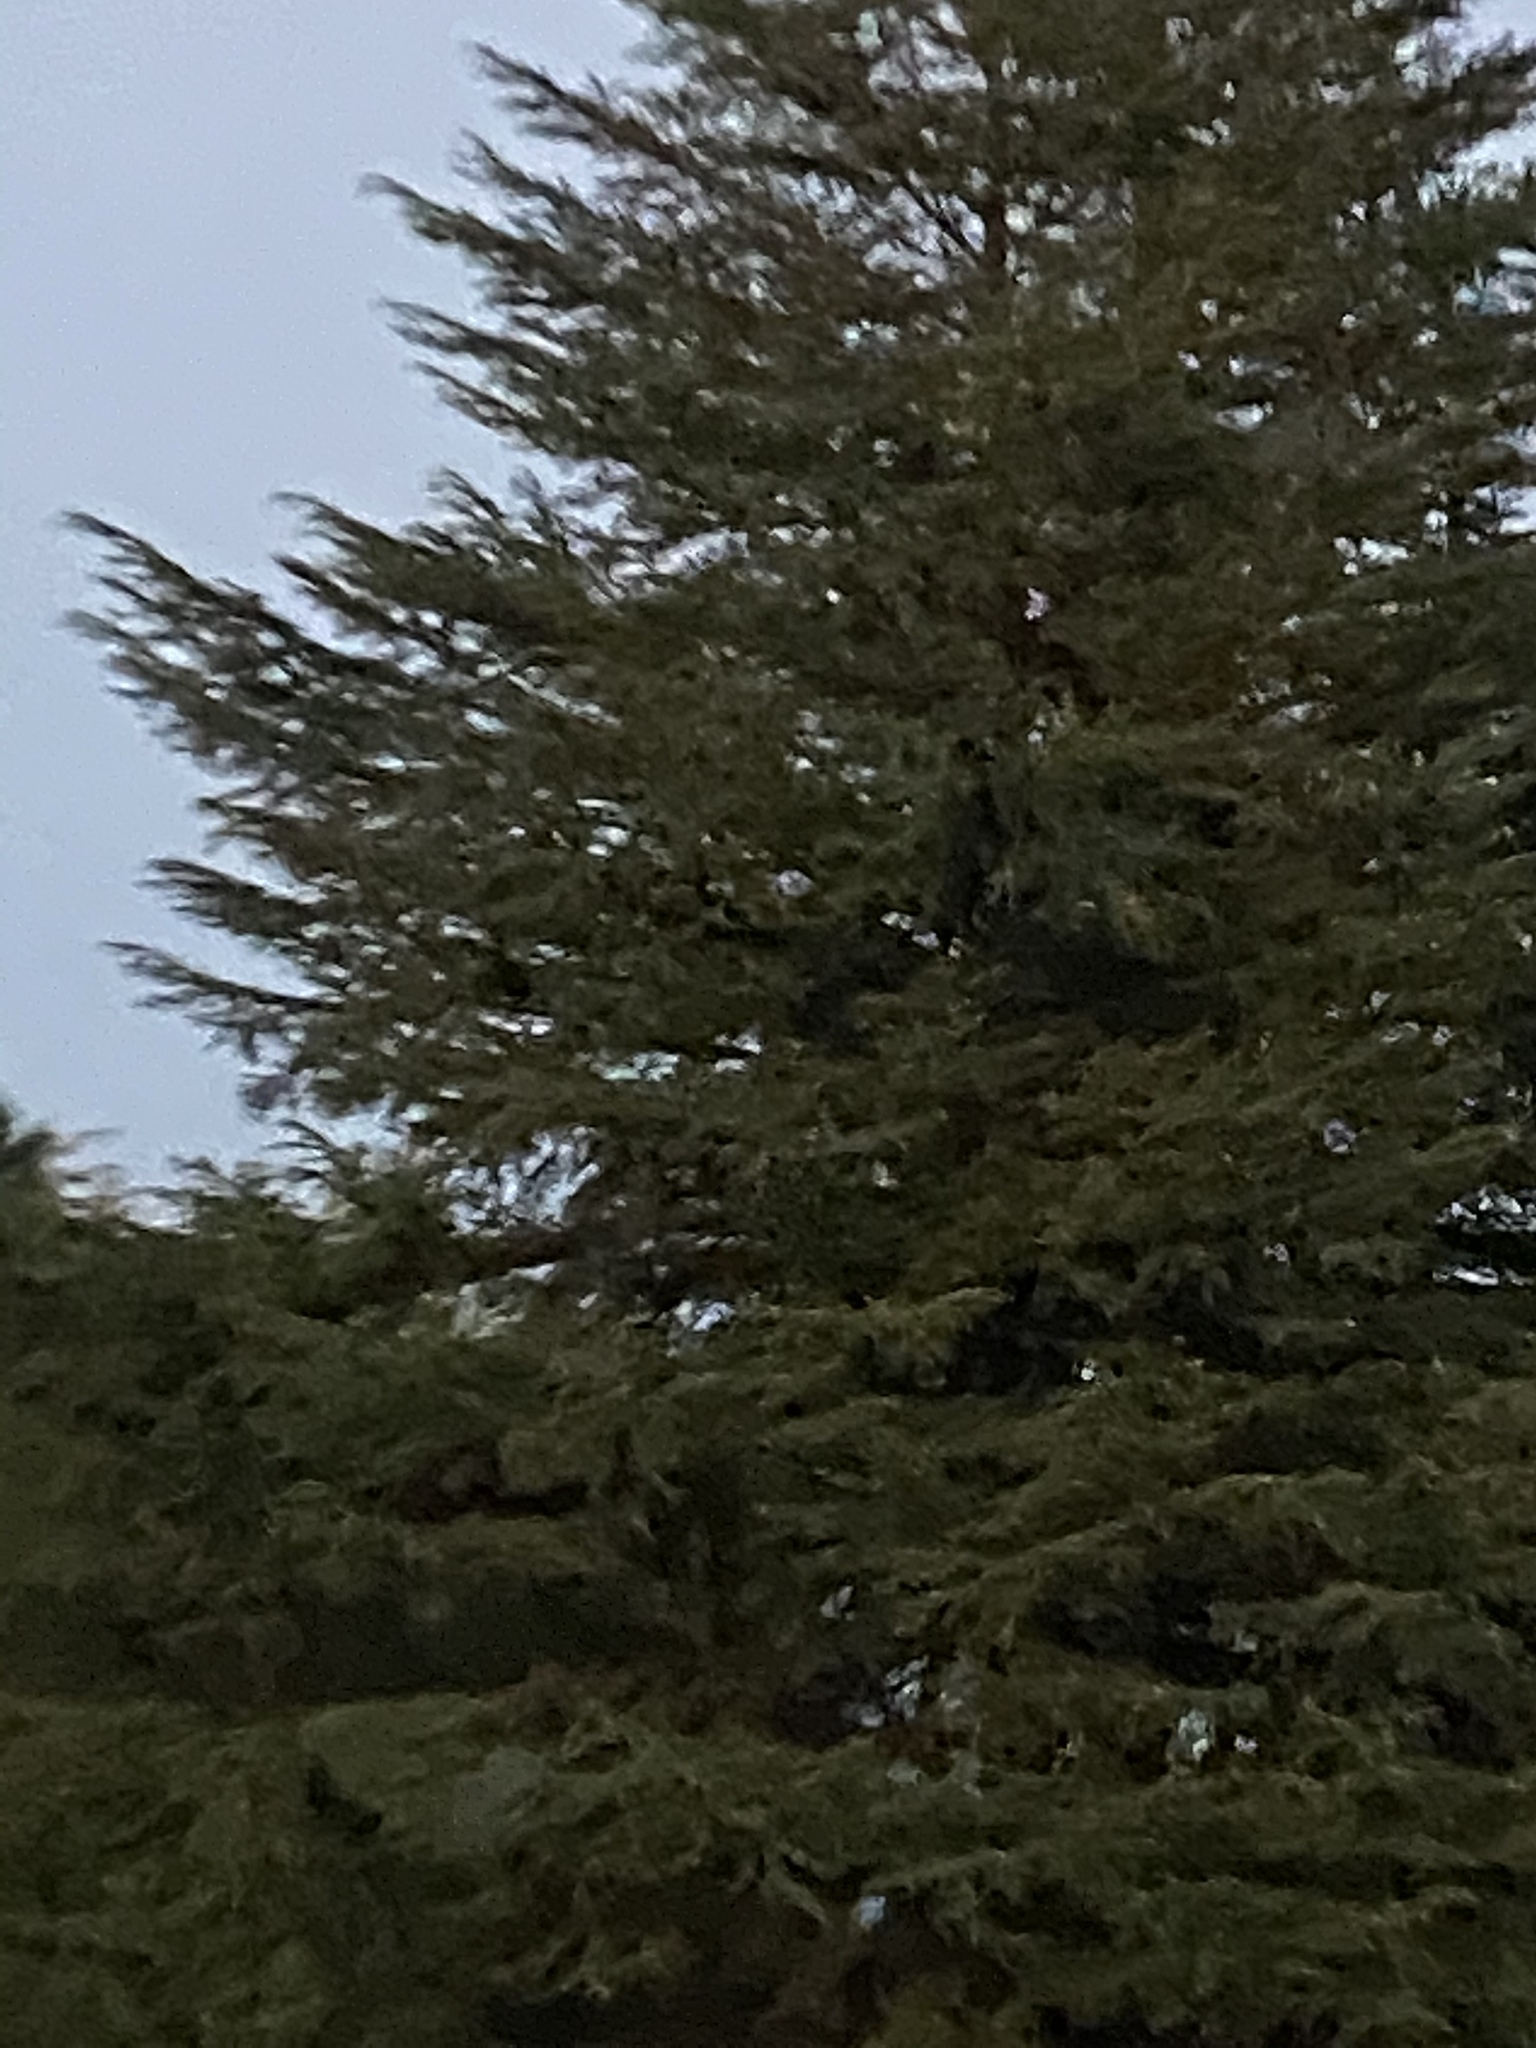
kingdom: Plantae
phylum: Tracheophyta
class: Pinopsida
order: Pinales
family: Pinaceae
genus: Pseudotsuga
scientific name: Pseudotsuga menziesii
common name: Douglas fir
